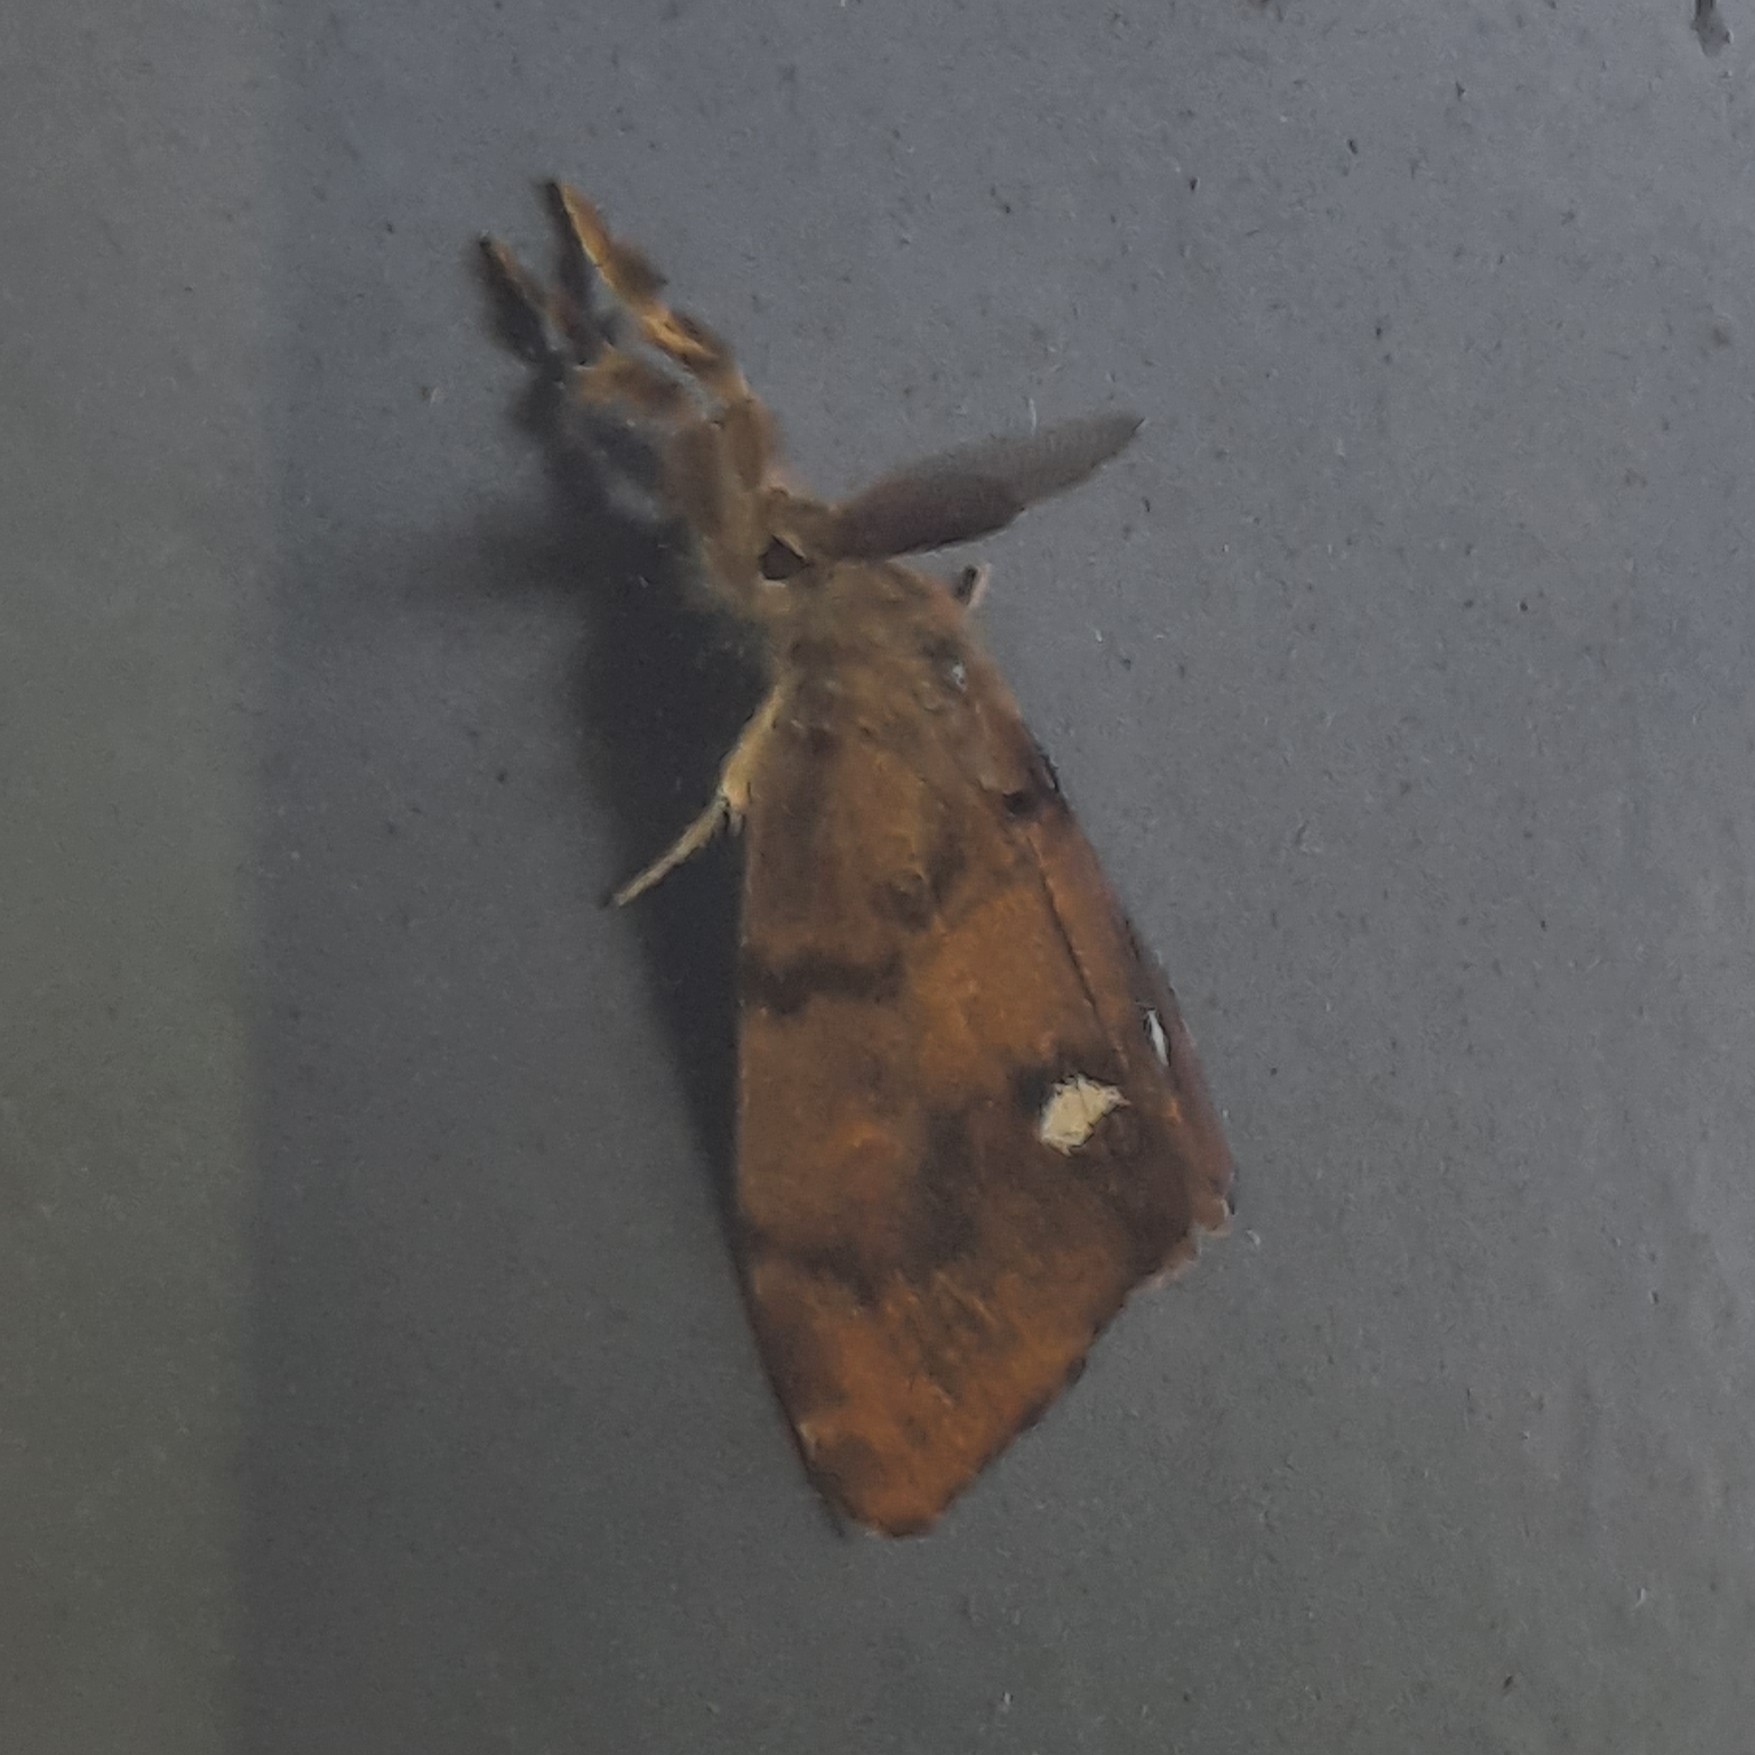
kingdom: Animalia
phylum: Arthropoda
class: Insecta
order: Lepidoptera
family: Erebidae
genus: Orgyia
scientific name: Orgyia antiqua
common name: Vapourer
